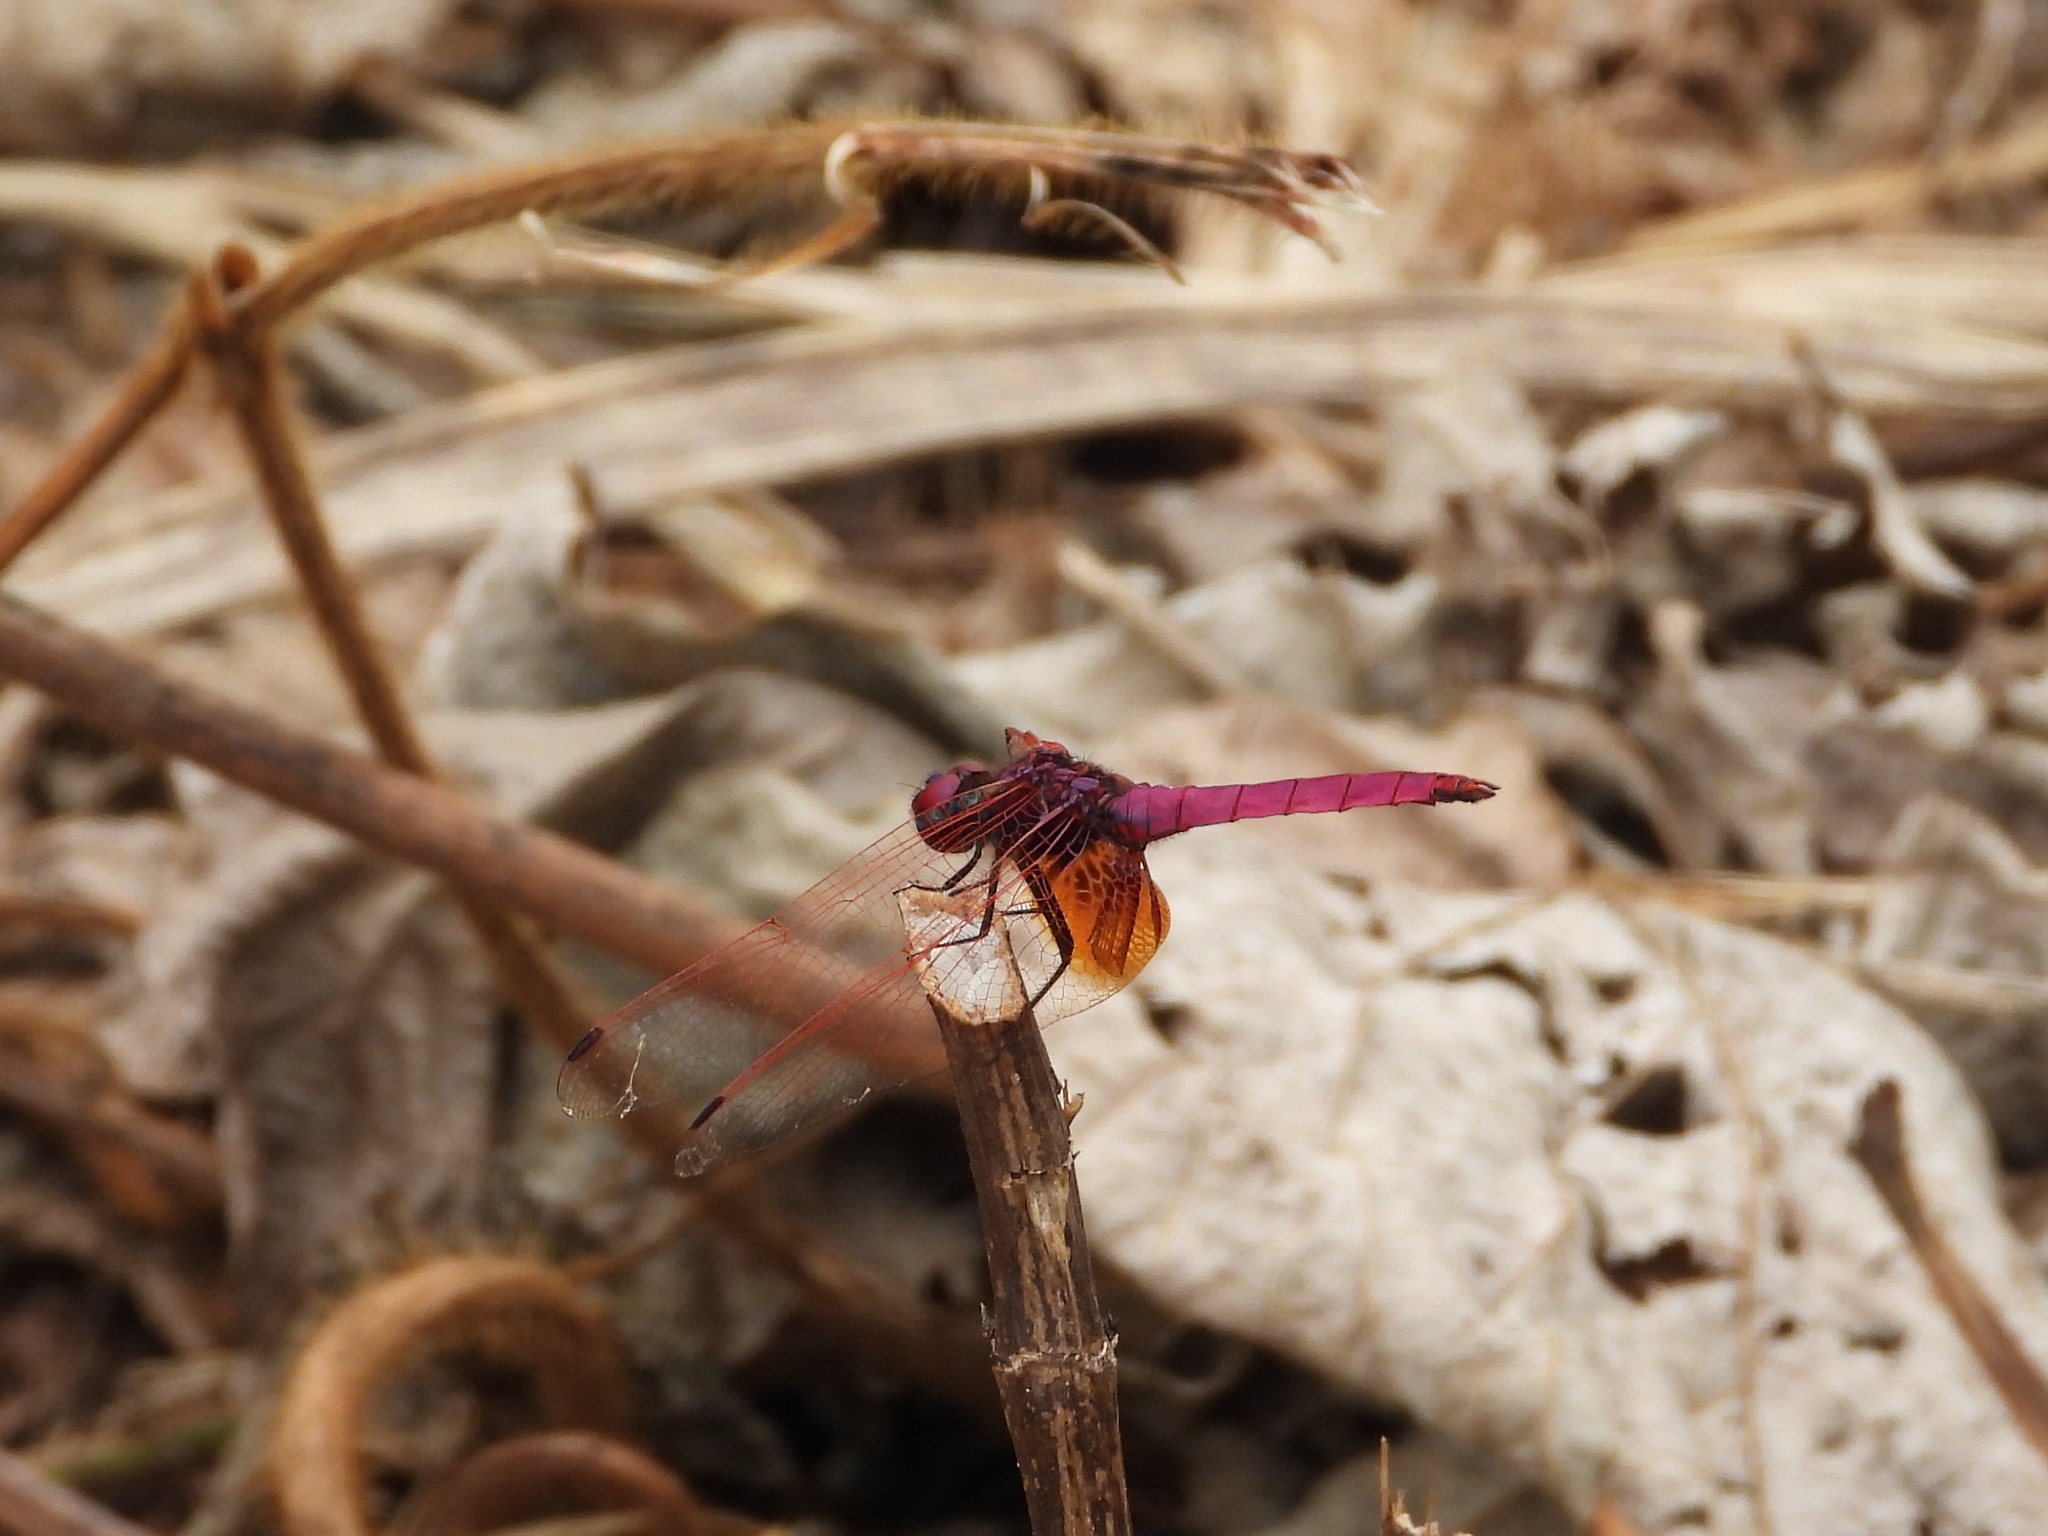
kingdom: Animalia
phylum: Arthropoda
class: Insecta
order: Odonata
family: Libellulidae
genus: Trithemis
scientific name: Trithemis aurora
